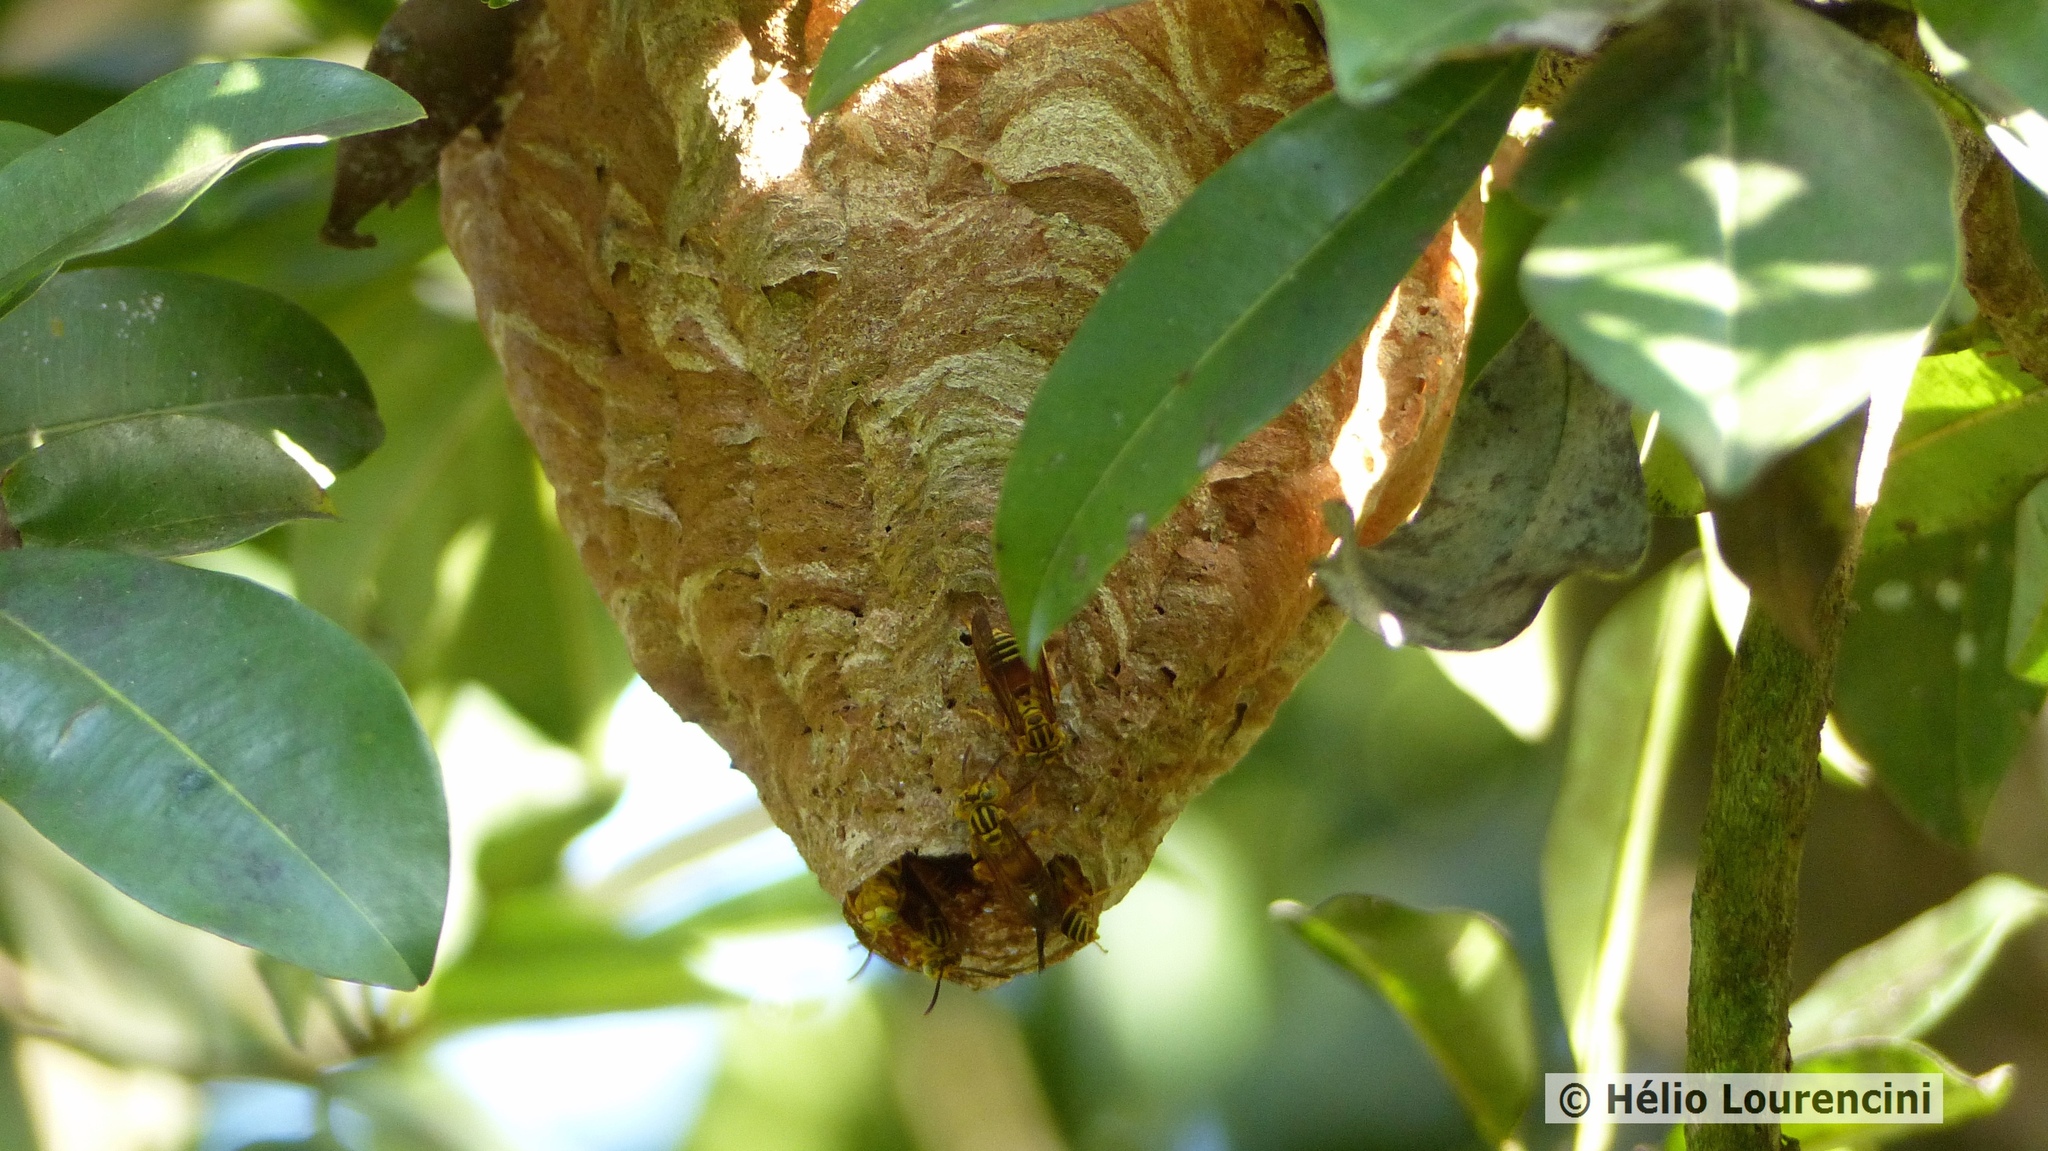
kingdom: Animalia
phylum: Arthropoda
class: Insecta
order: Hymenoptera
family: Vespidae
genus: Parachartergus
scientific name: Parachartergus vespiceps
